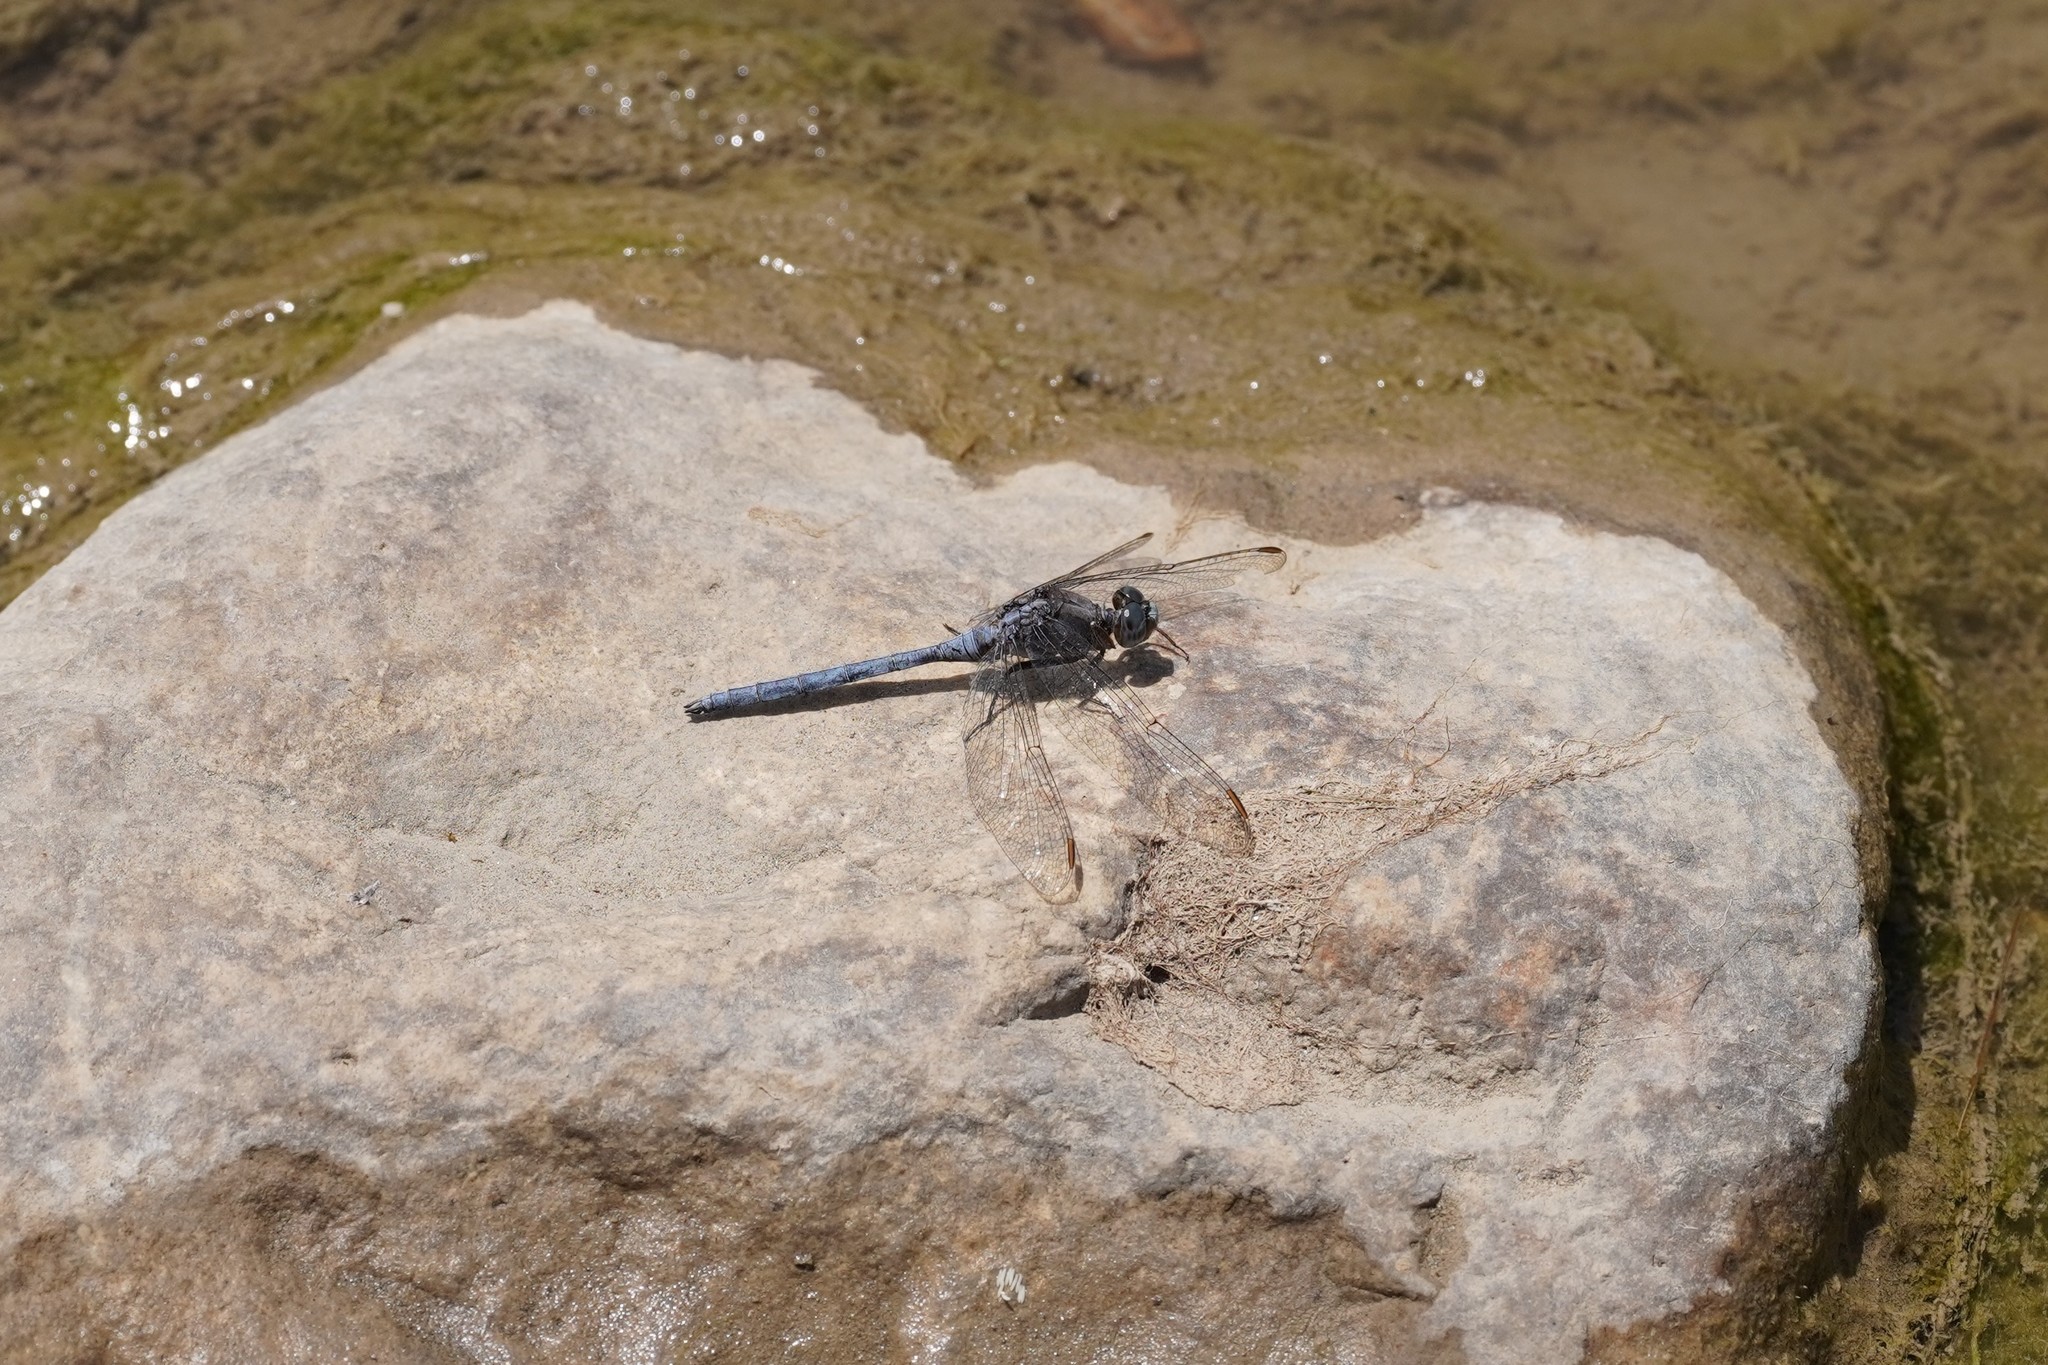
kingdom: Animalia
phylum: Arthropoda
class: Insecta
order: Odonata
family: Libellulidae
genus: Orthetrum
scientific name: Orthetrum chrysostigma
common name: Epaulet skimmer
